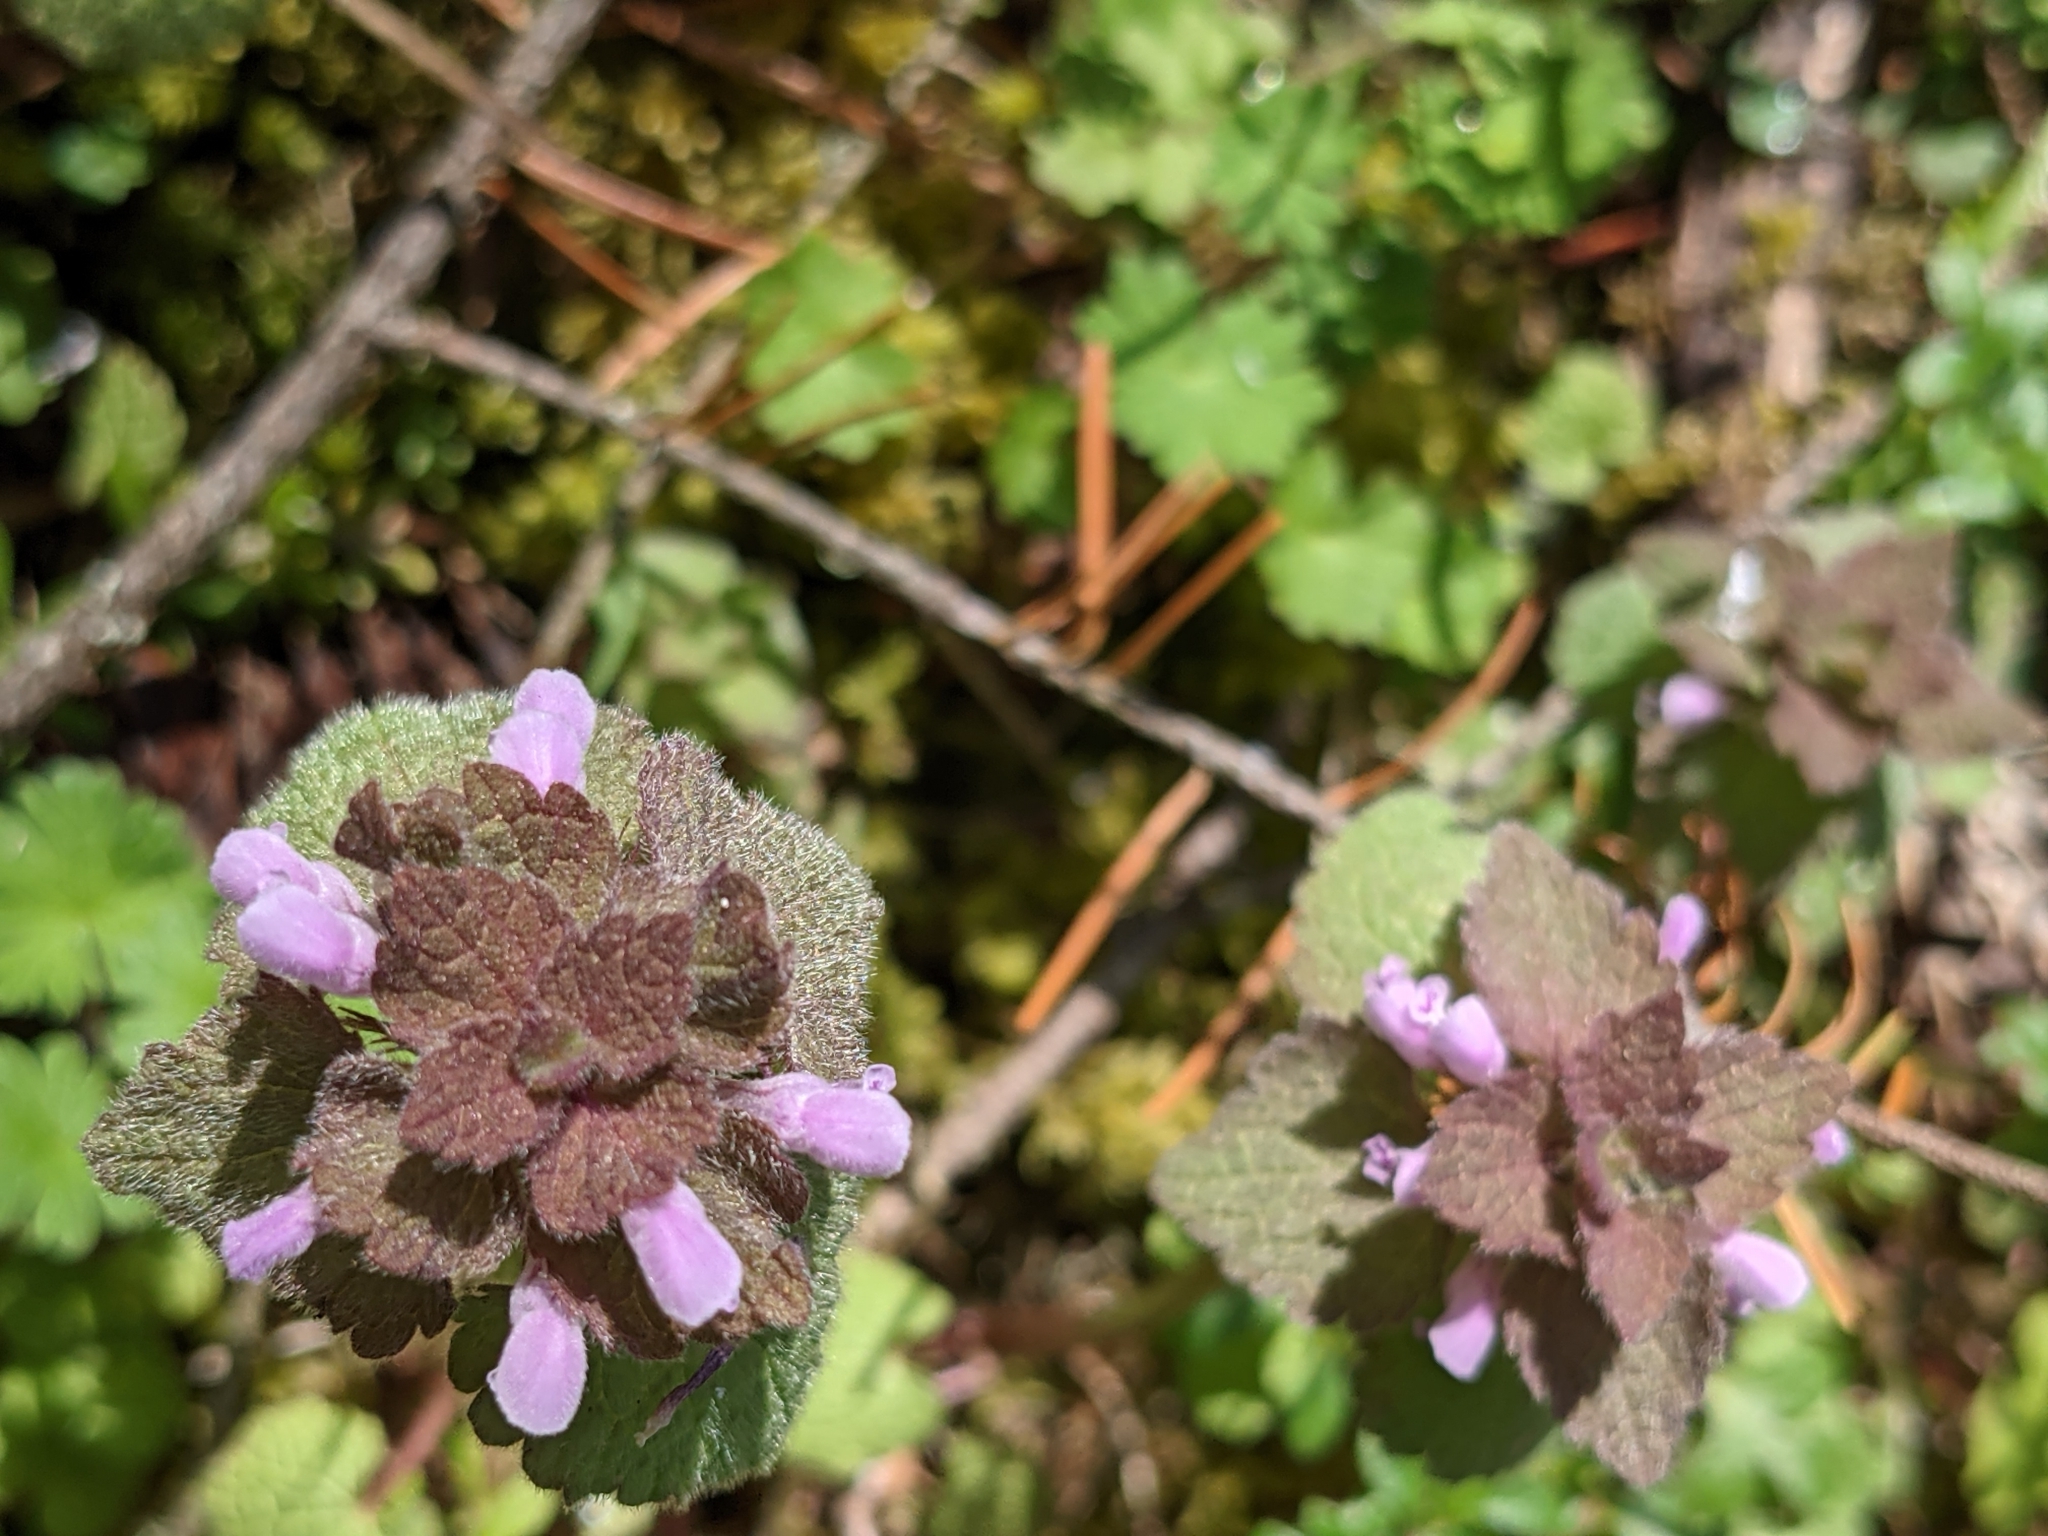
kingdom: Plantae
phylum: Tracheophyta
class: Magnoliopsida
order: Lamiales
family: Lamiaceae
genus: Lamium
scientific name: Lamium purpureum
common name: Red dead-nettle
